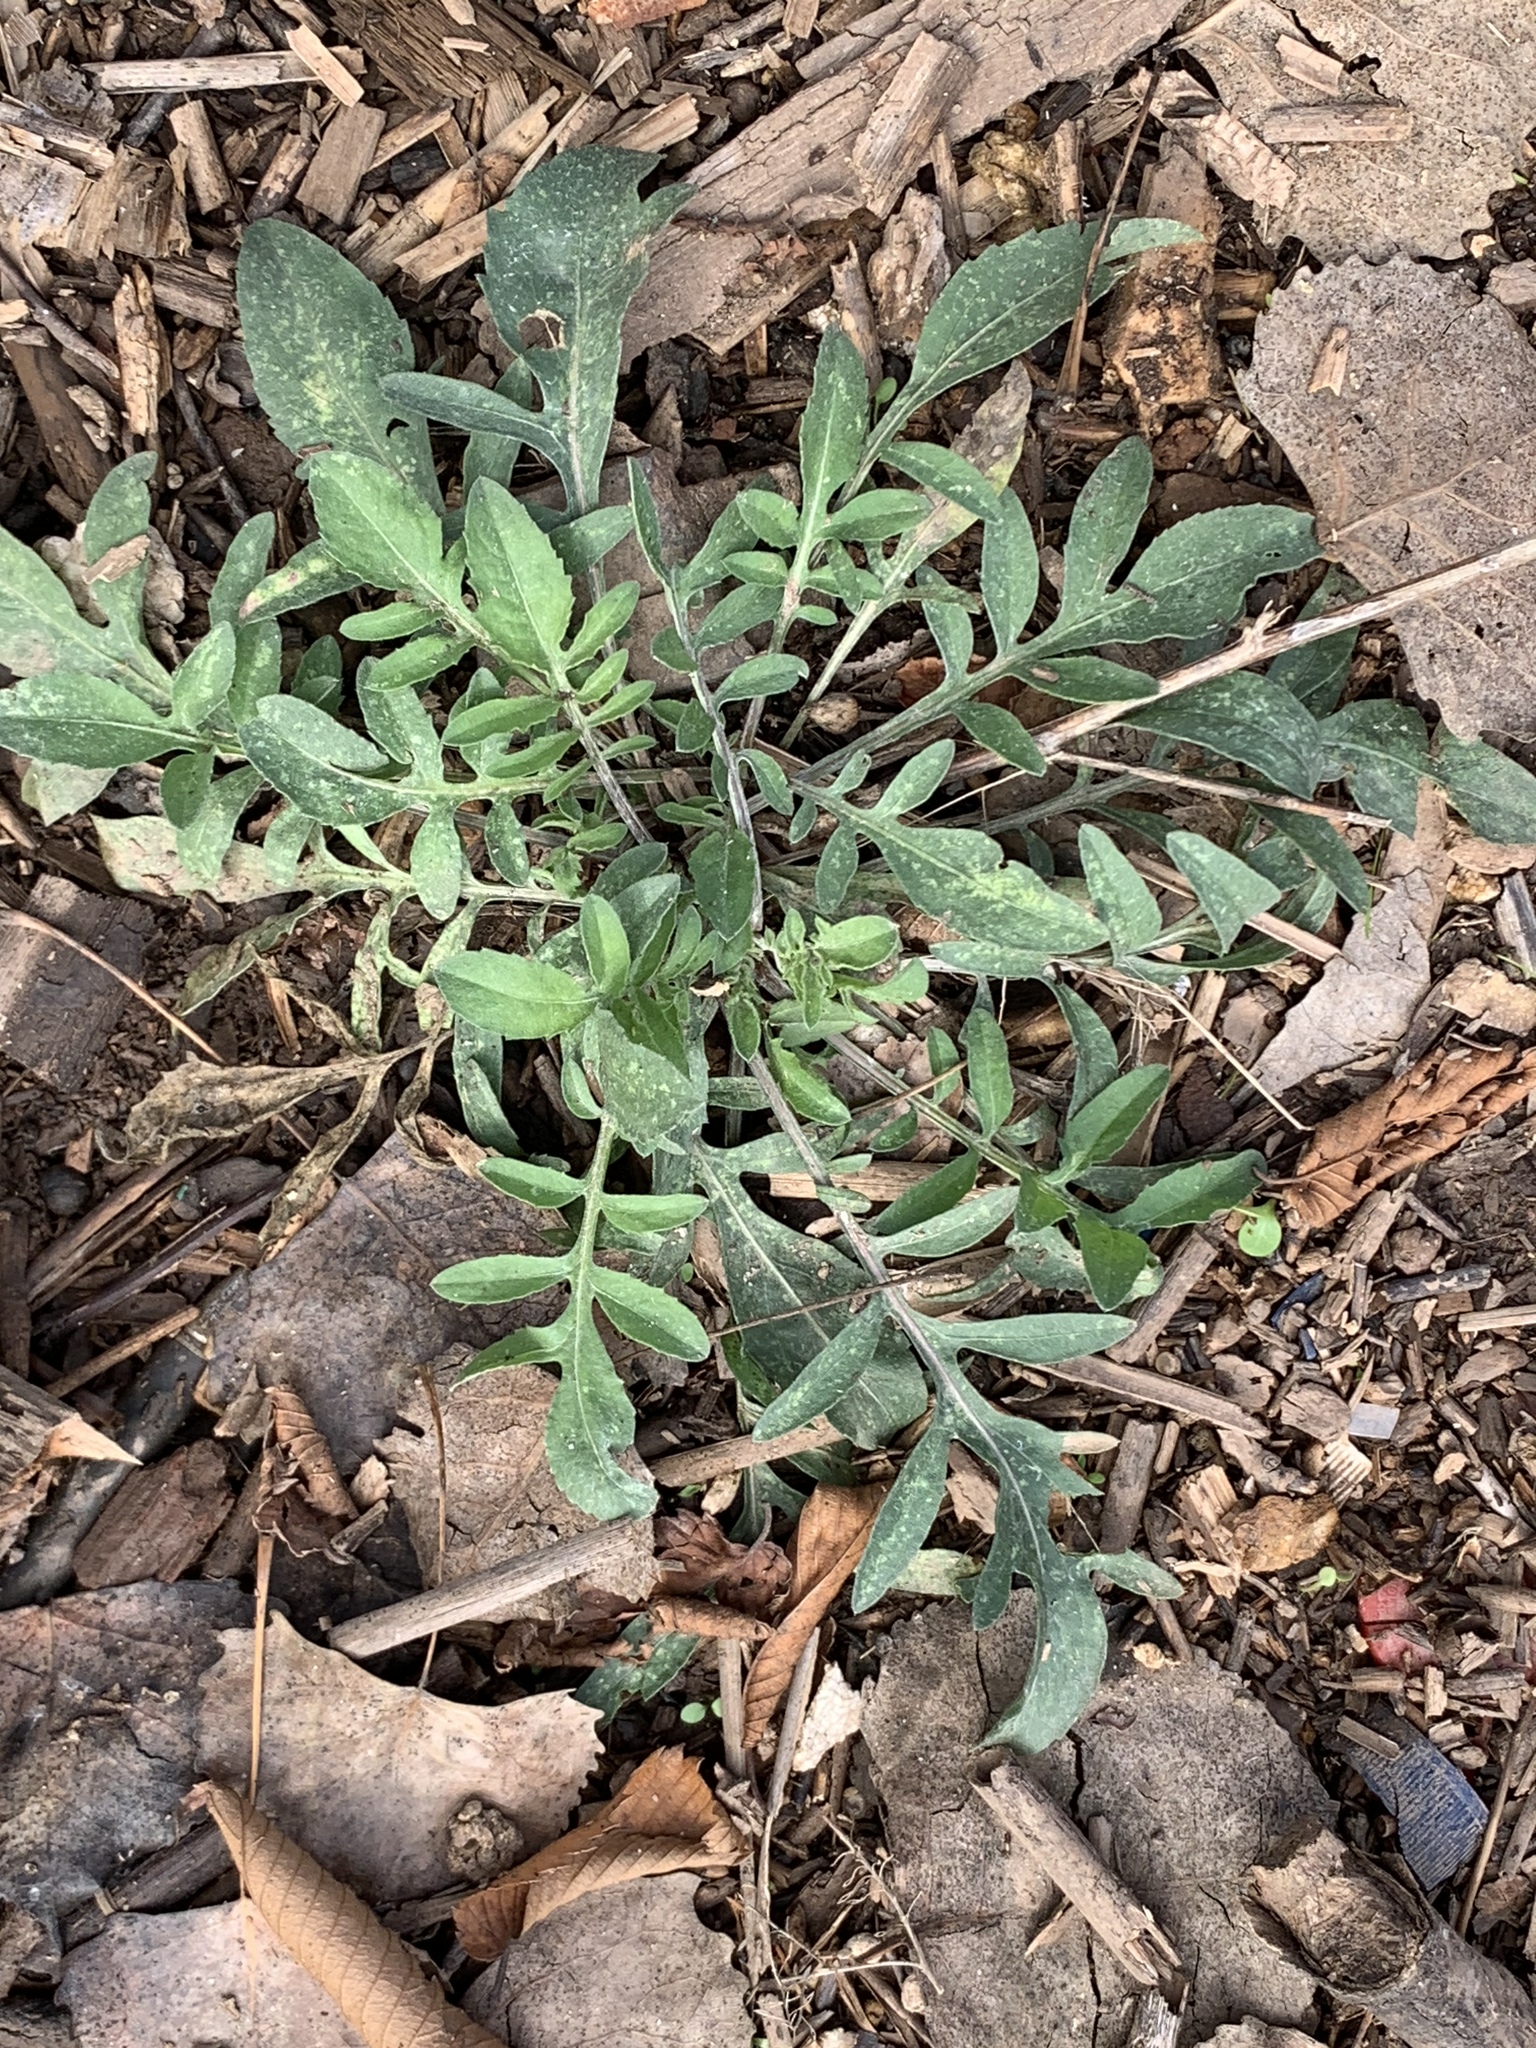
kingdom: Plantae
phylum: Tracheophyta
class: Magnoliopsida
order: Asterales
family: Asteraceae
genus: Centaurea
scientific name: Centaurea stoebe
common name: Spotted knapweed
